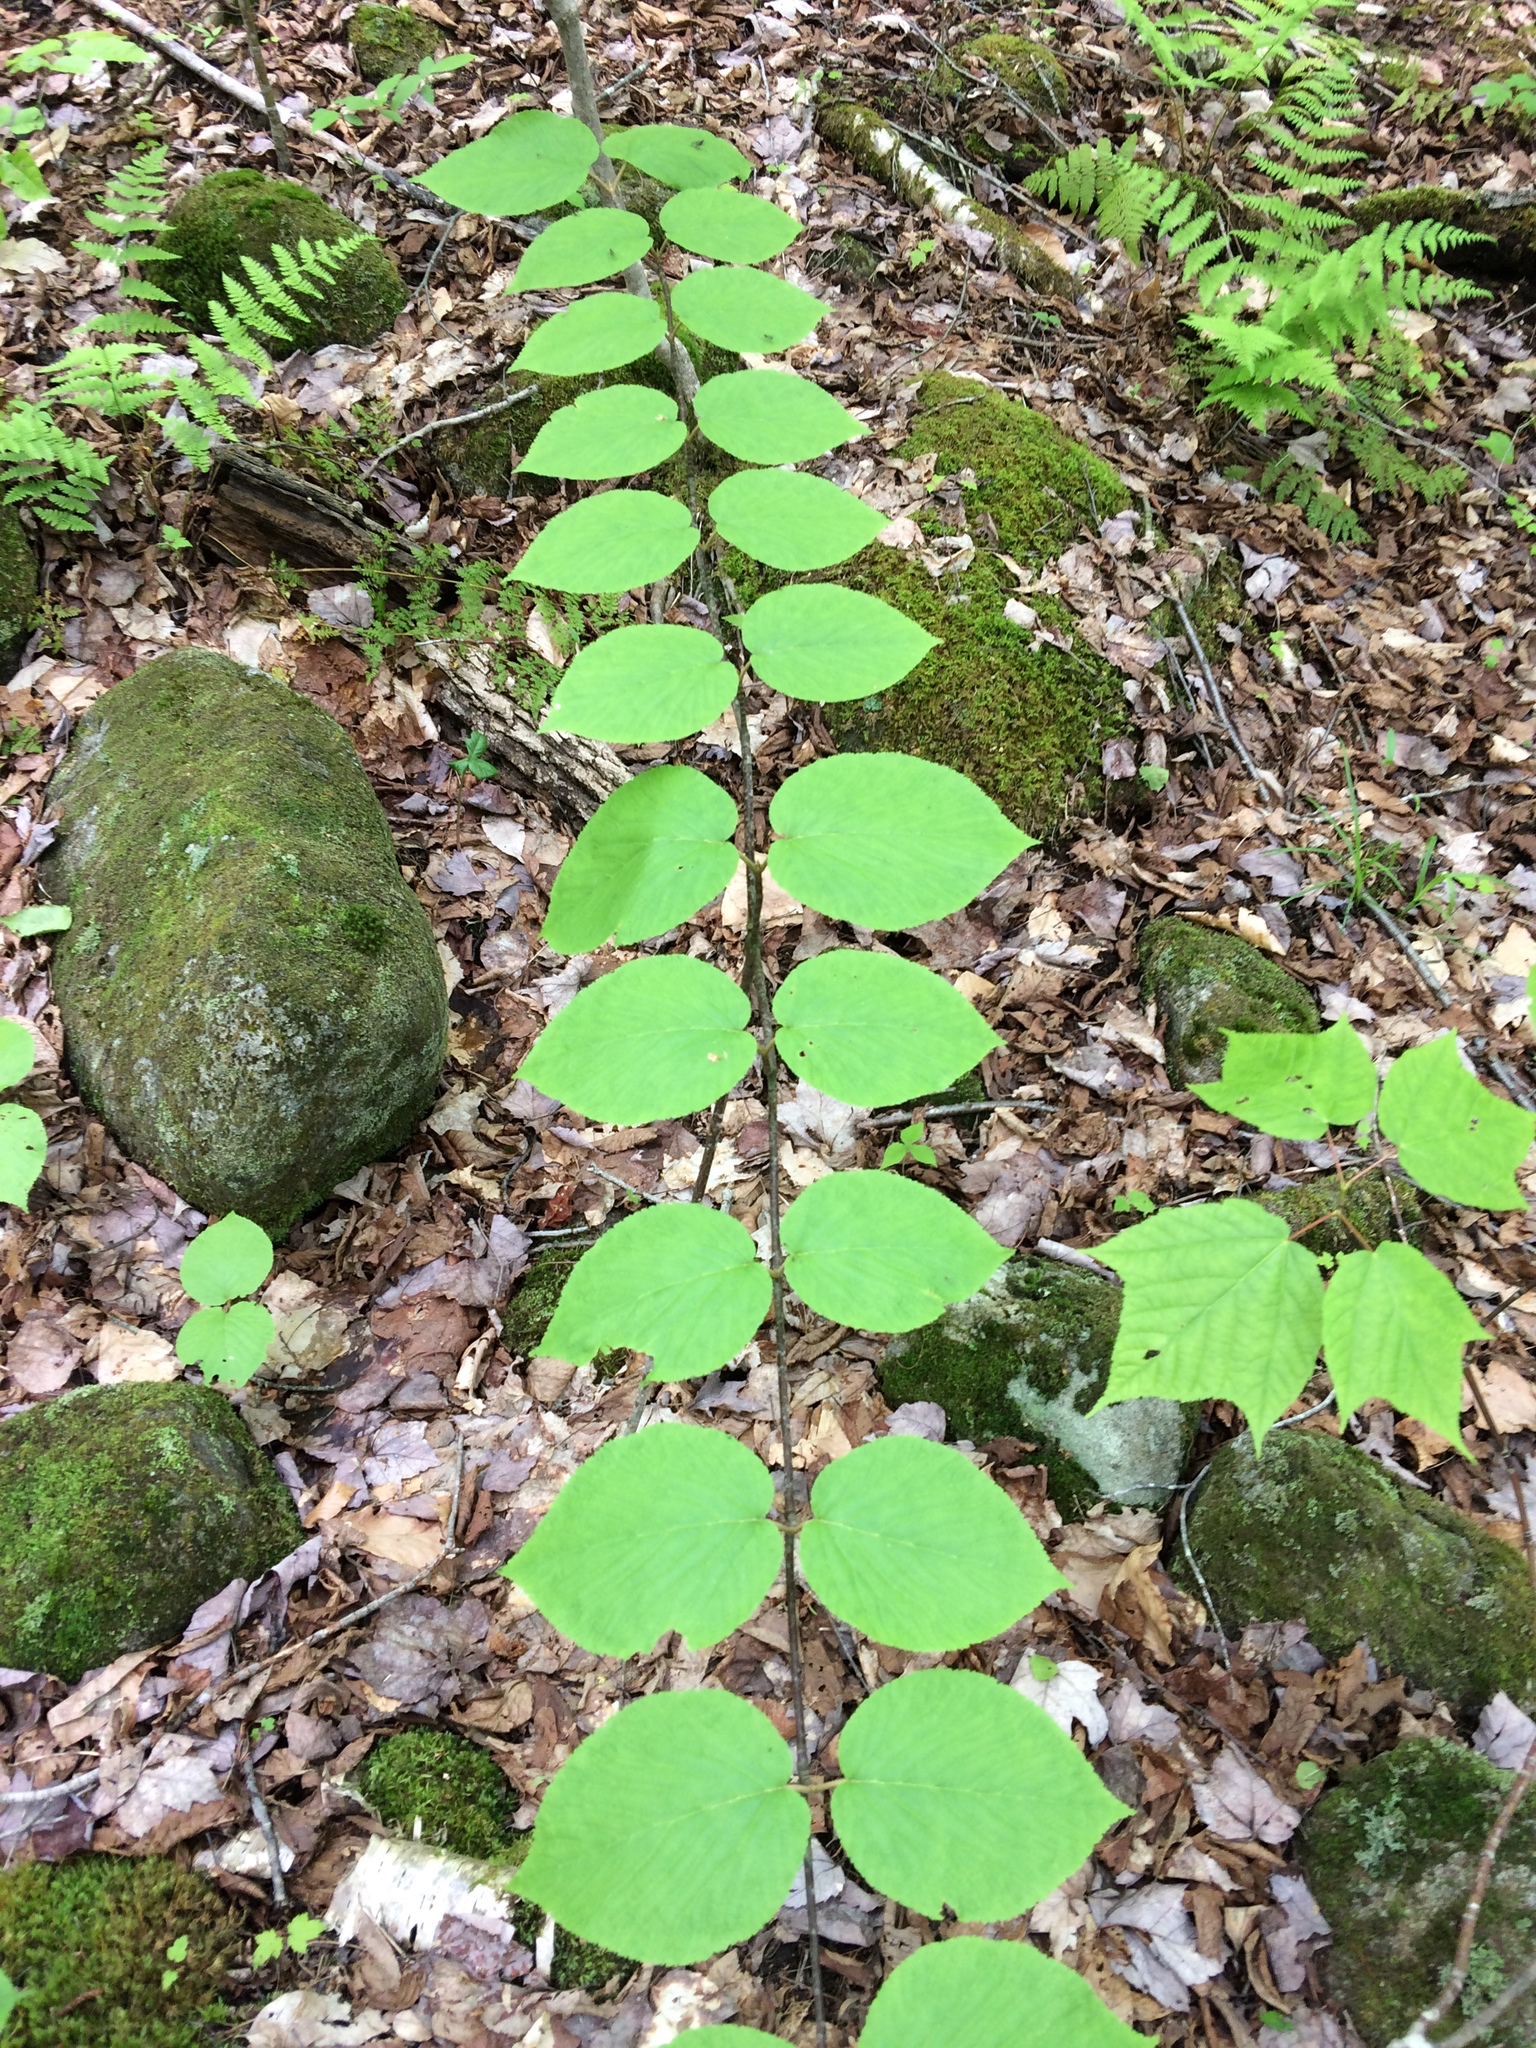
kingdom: Plantae
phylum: Tracheophyta
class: Magnoliopsida
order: Dipsacales
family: Viburnaceae
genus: Viburnum
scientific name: Viburnum lantanoides
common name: Hobblebush
